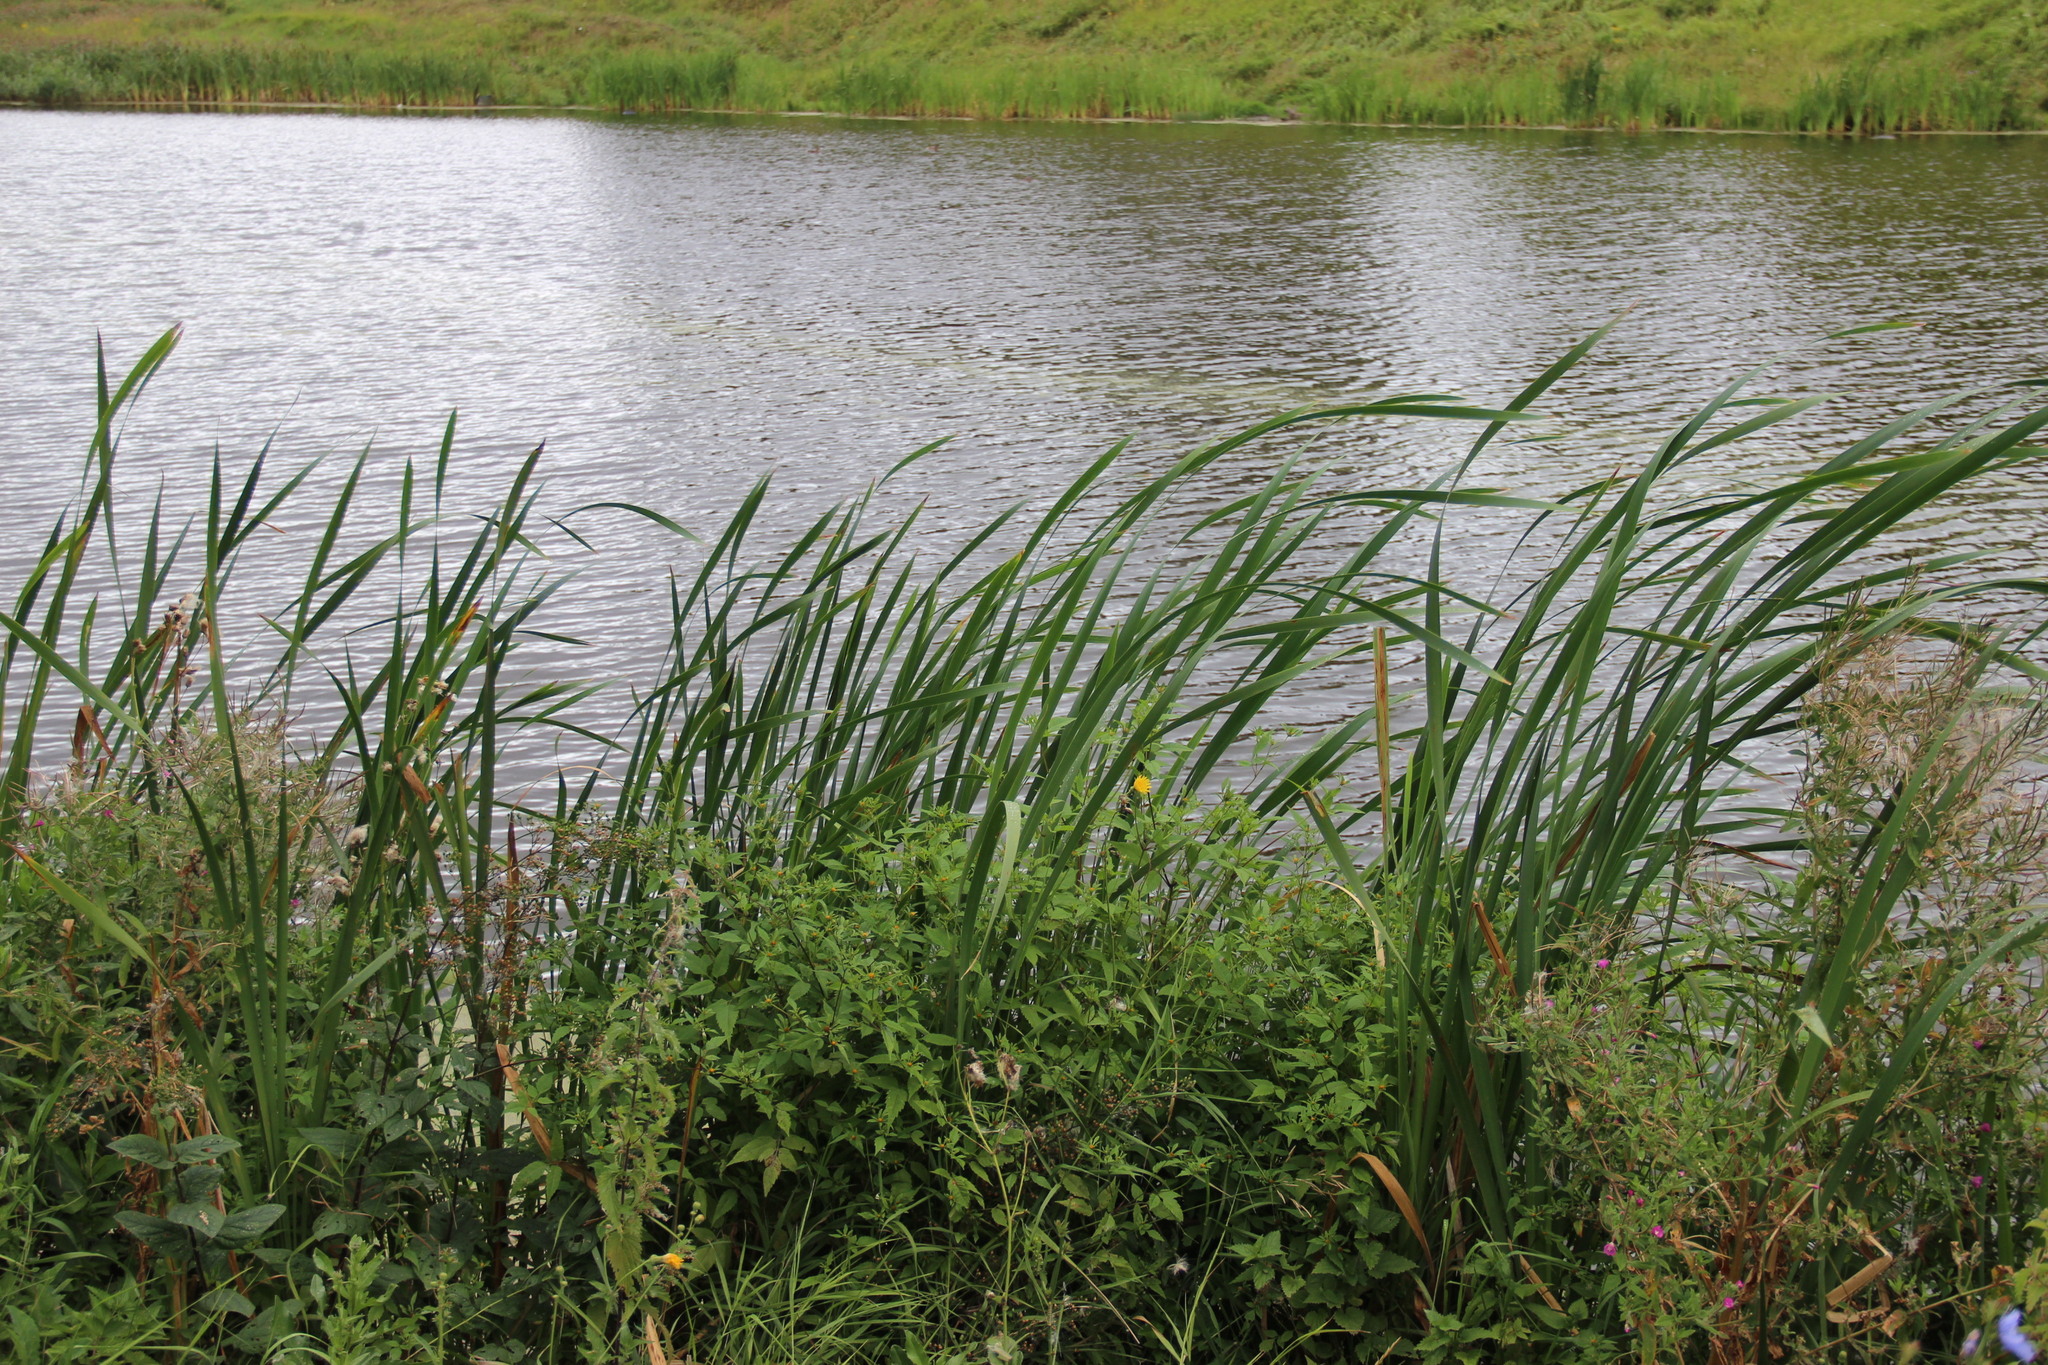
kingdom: Plantae
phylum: Tracheophyta
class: Liliopsida
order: Poales
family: Typhaceae
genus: Typha
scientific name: Typha latifolia
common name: Broadleaf cattail
